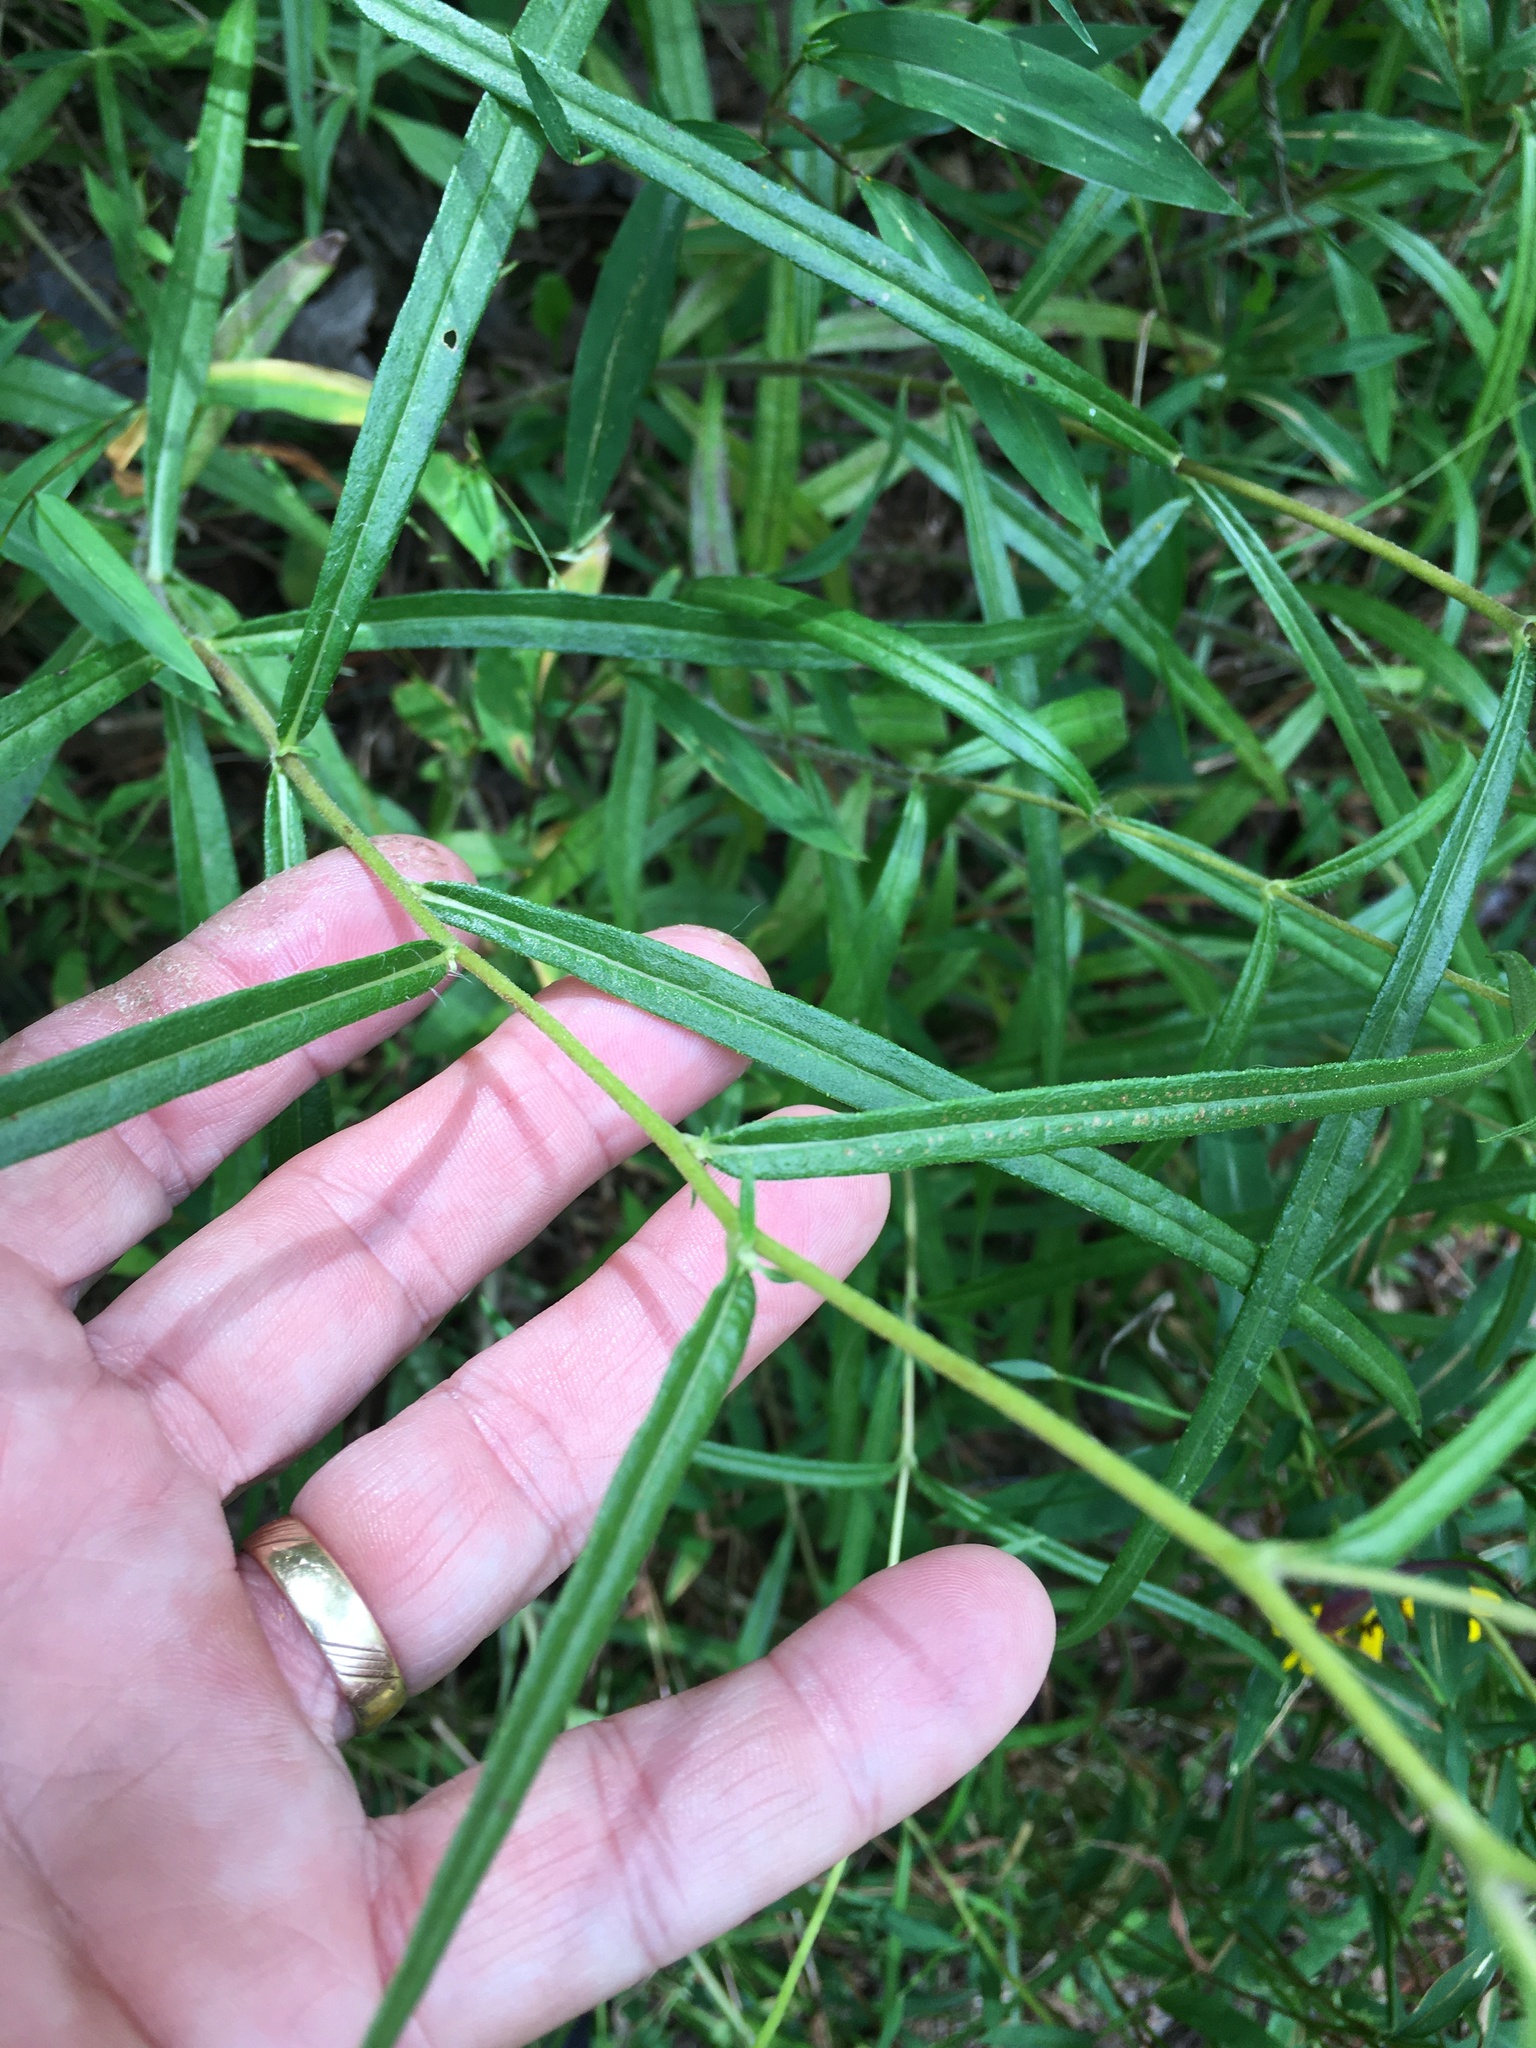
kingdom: Plantae
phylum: Tracheophyta
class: Magnoliopsida
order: Asterales
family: Asteraceae
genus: Helianthus
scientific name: Helianthus angustifolius
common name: Swamp sunflower
